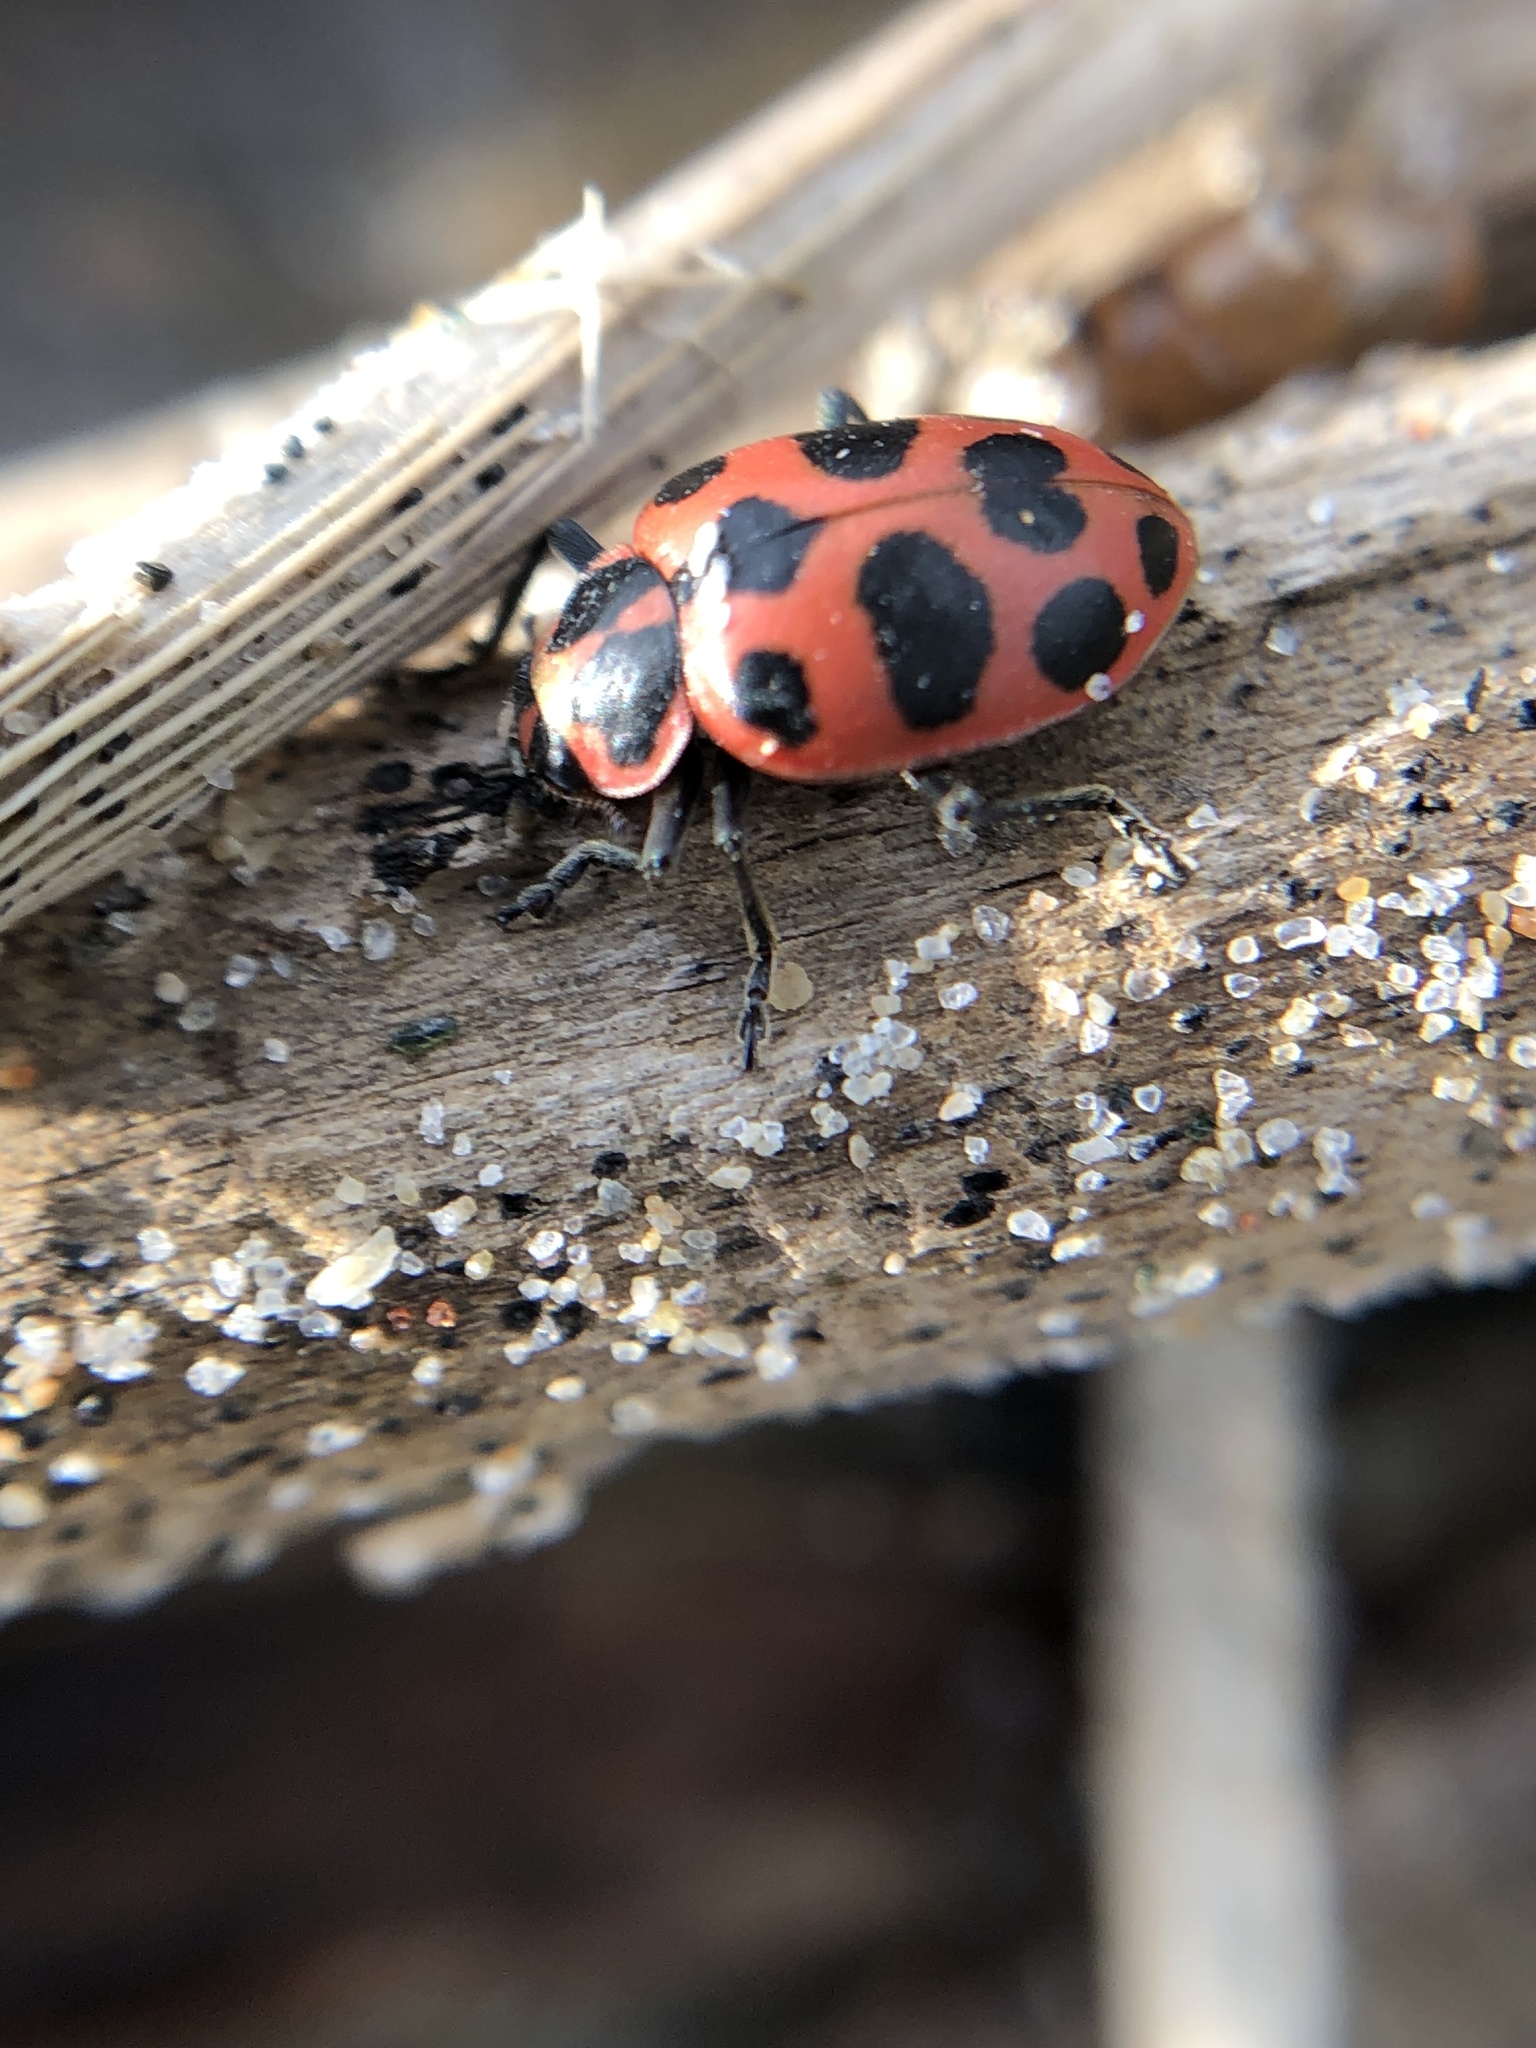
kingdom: Animalia
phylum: Arthropoda
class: Insecta
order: Coleoptera
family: Coccinellidae
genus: Coleomegilla
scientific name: Coleomegilla maculata
